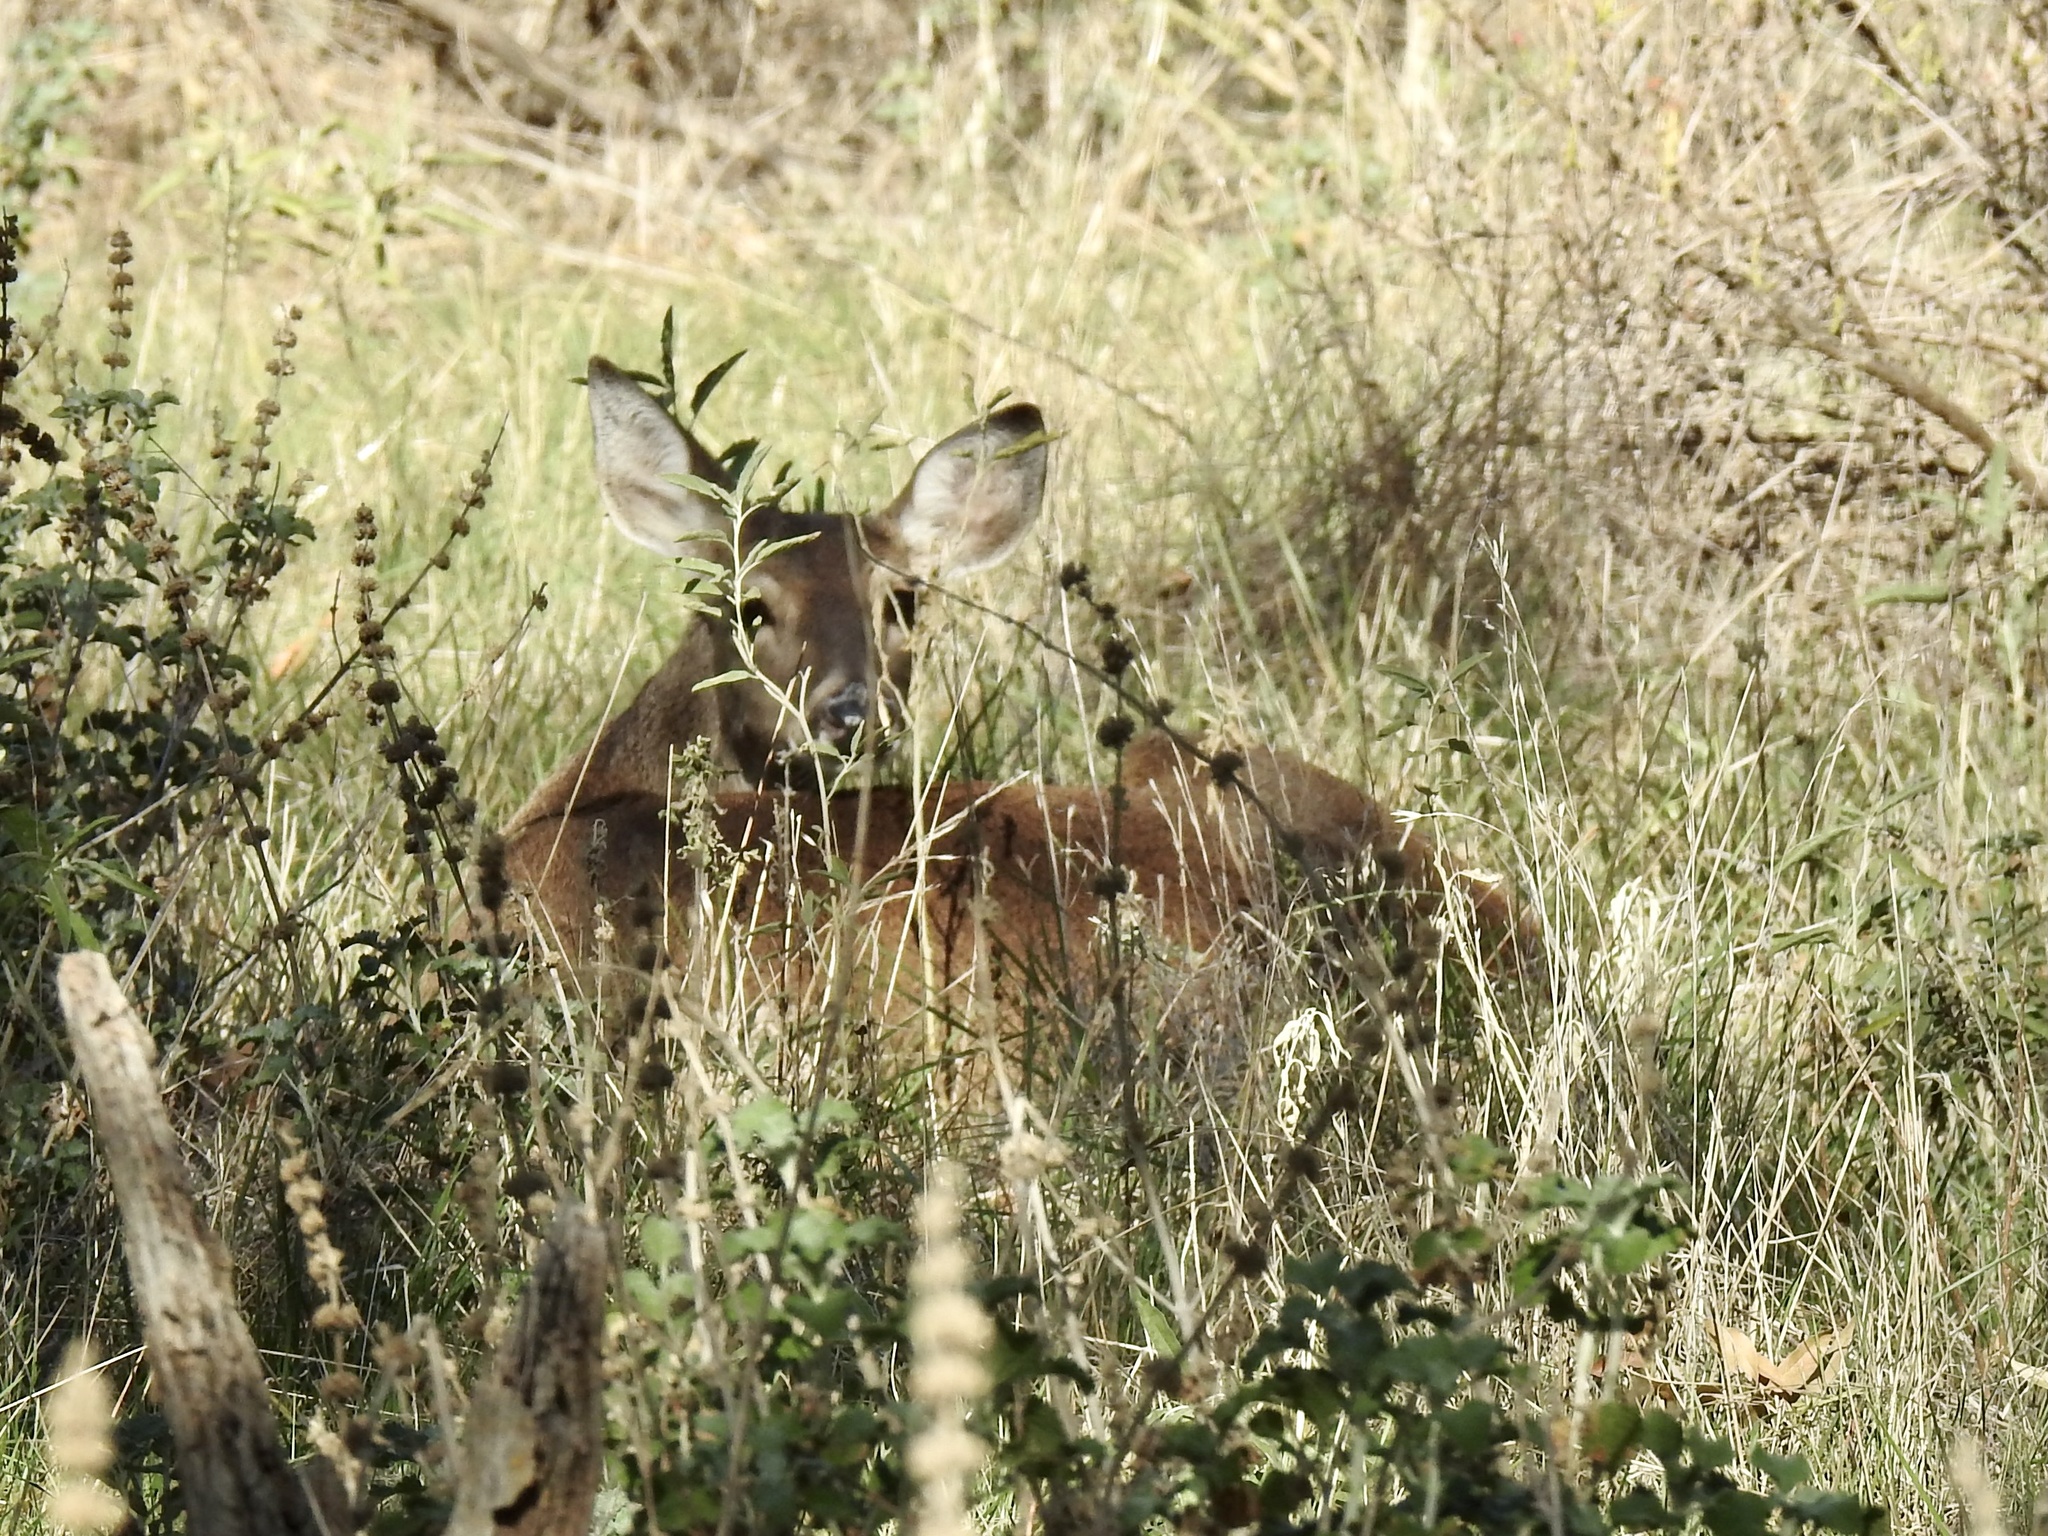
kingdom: Animalia
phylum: Chordata
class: Mammalia
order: Artiodactyla
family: Cervidae
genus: Odocoileus
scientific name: Odocoileus virginianus
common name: White-tailed deer
